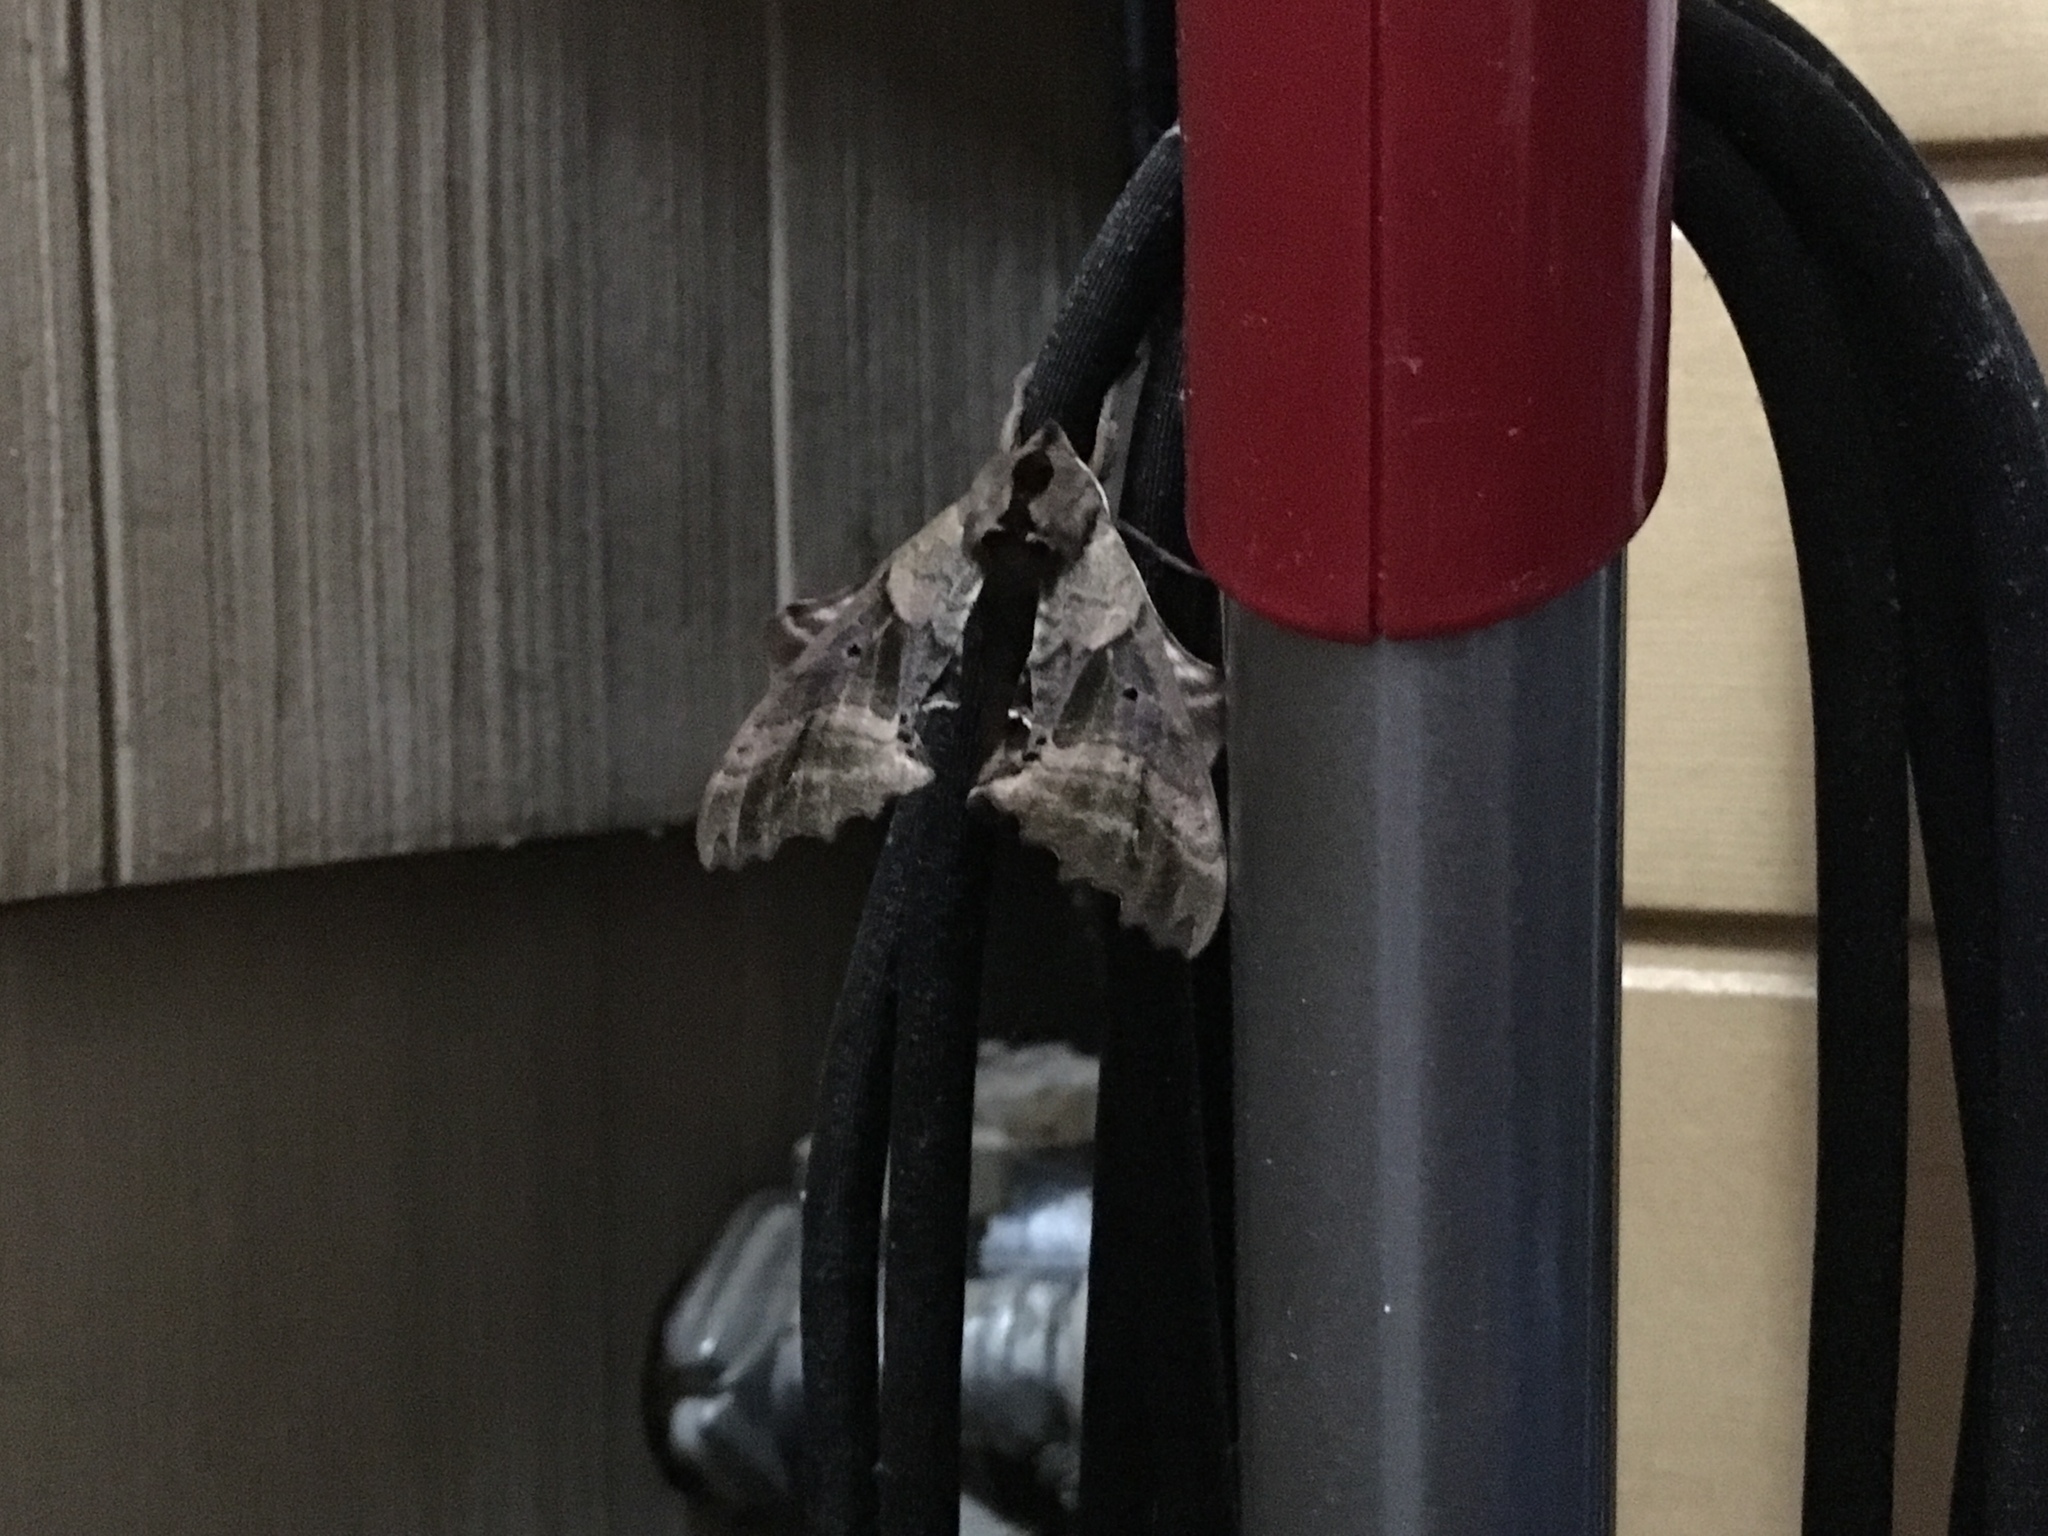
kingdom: Animalia
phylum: Arthropoda
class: Insecta
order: Lepidoptera
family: Sphingidae
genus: Paonias
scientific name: Paonias excaecata
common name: Blind-eyed sphinx
